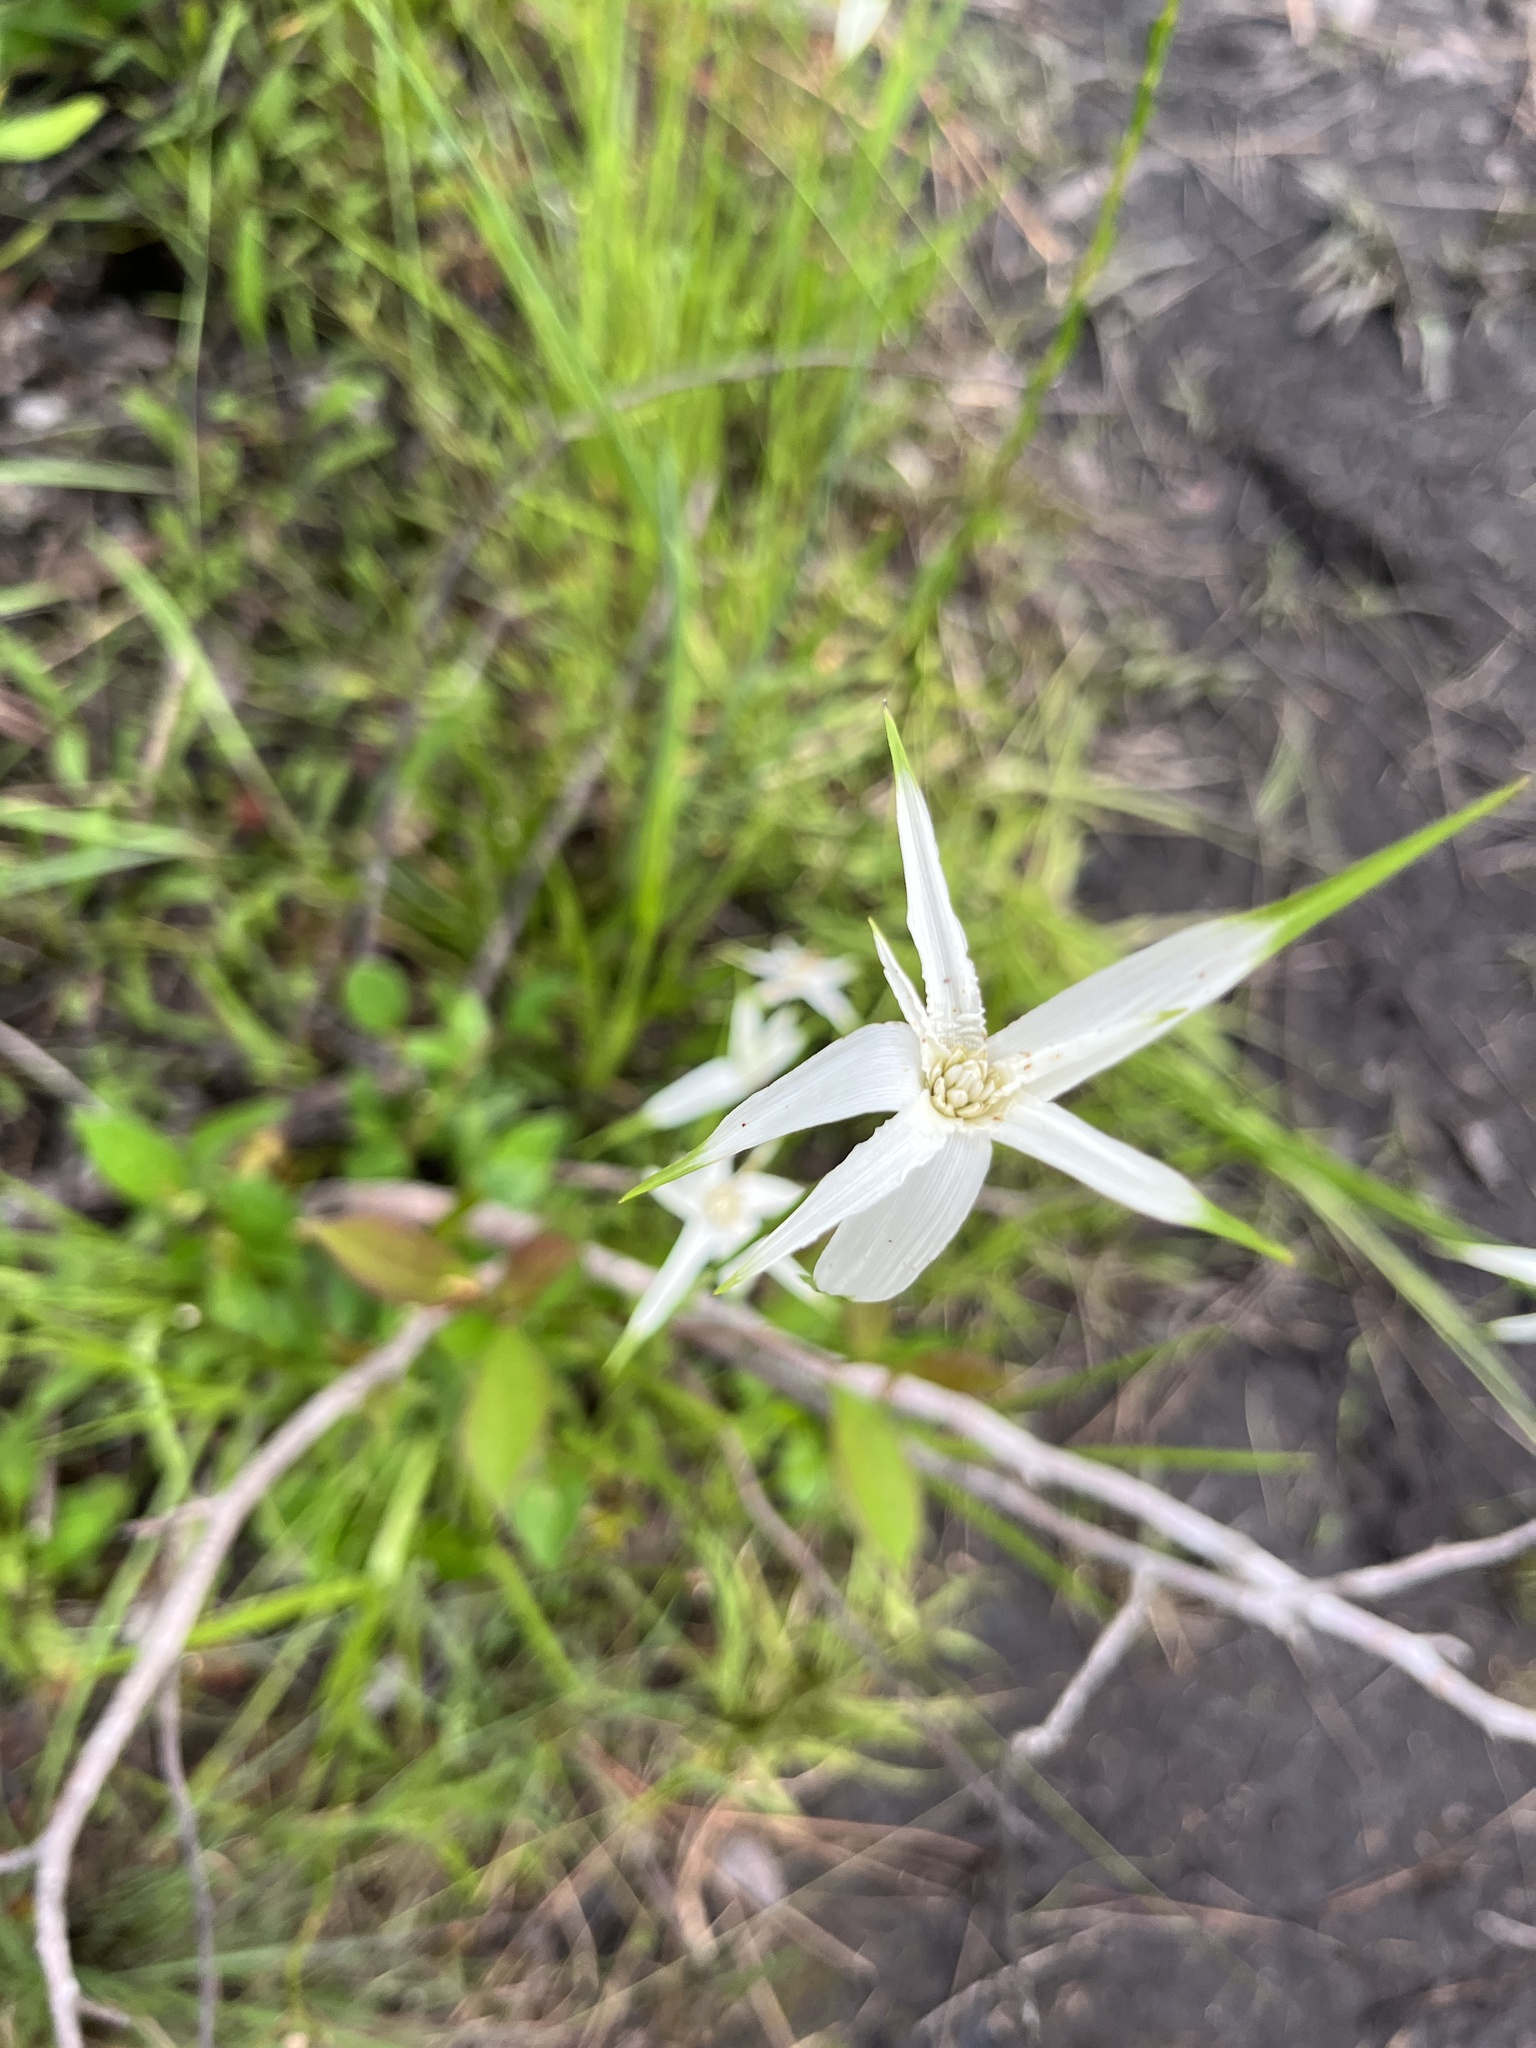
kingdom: Plantae
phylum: Tracheophyta
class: Liliopsida
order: Poales
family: Cyperaceae
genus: Rhynchospora
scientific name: Rhynchospora latifolia
